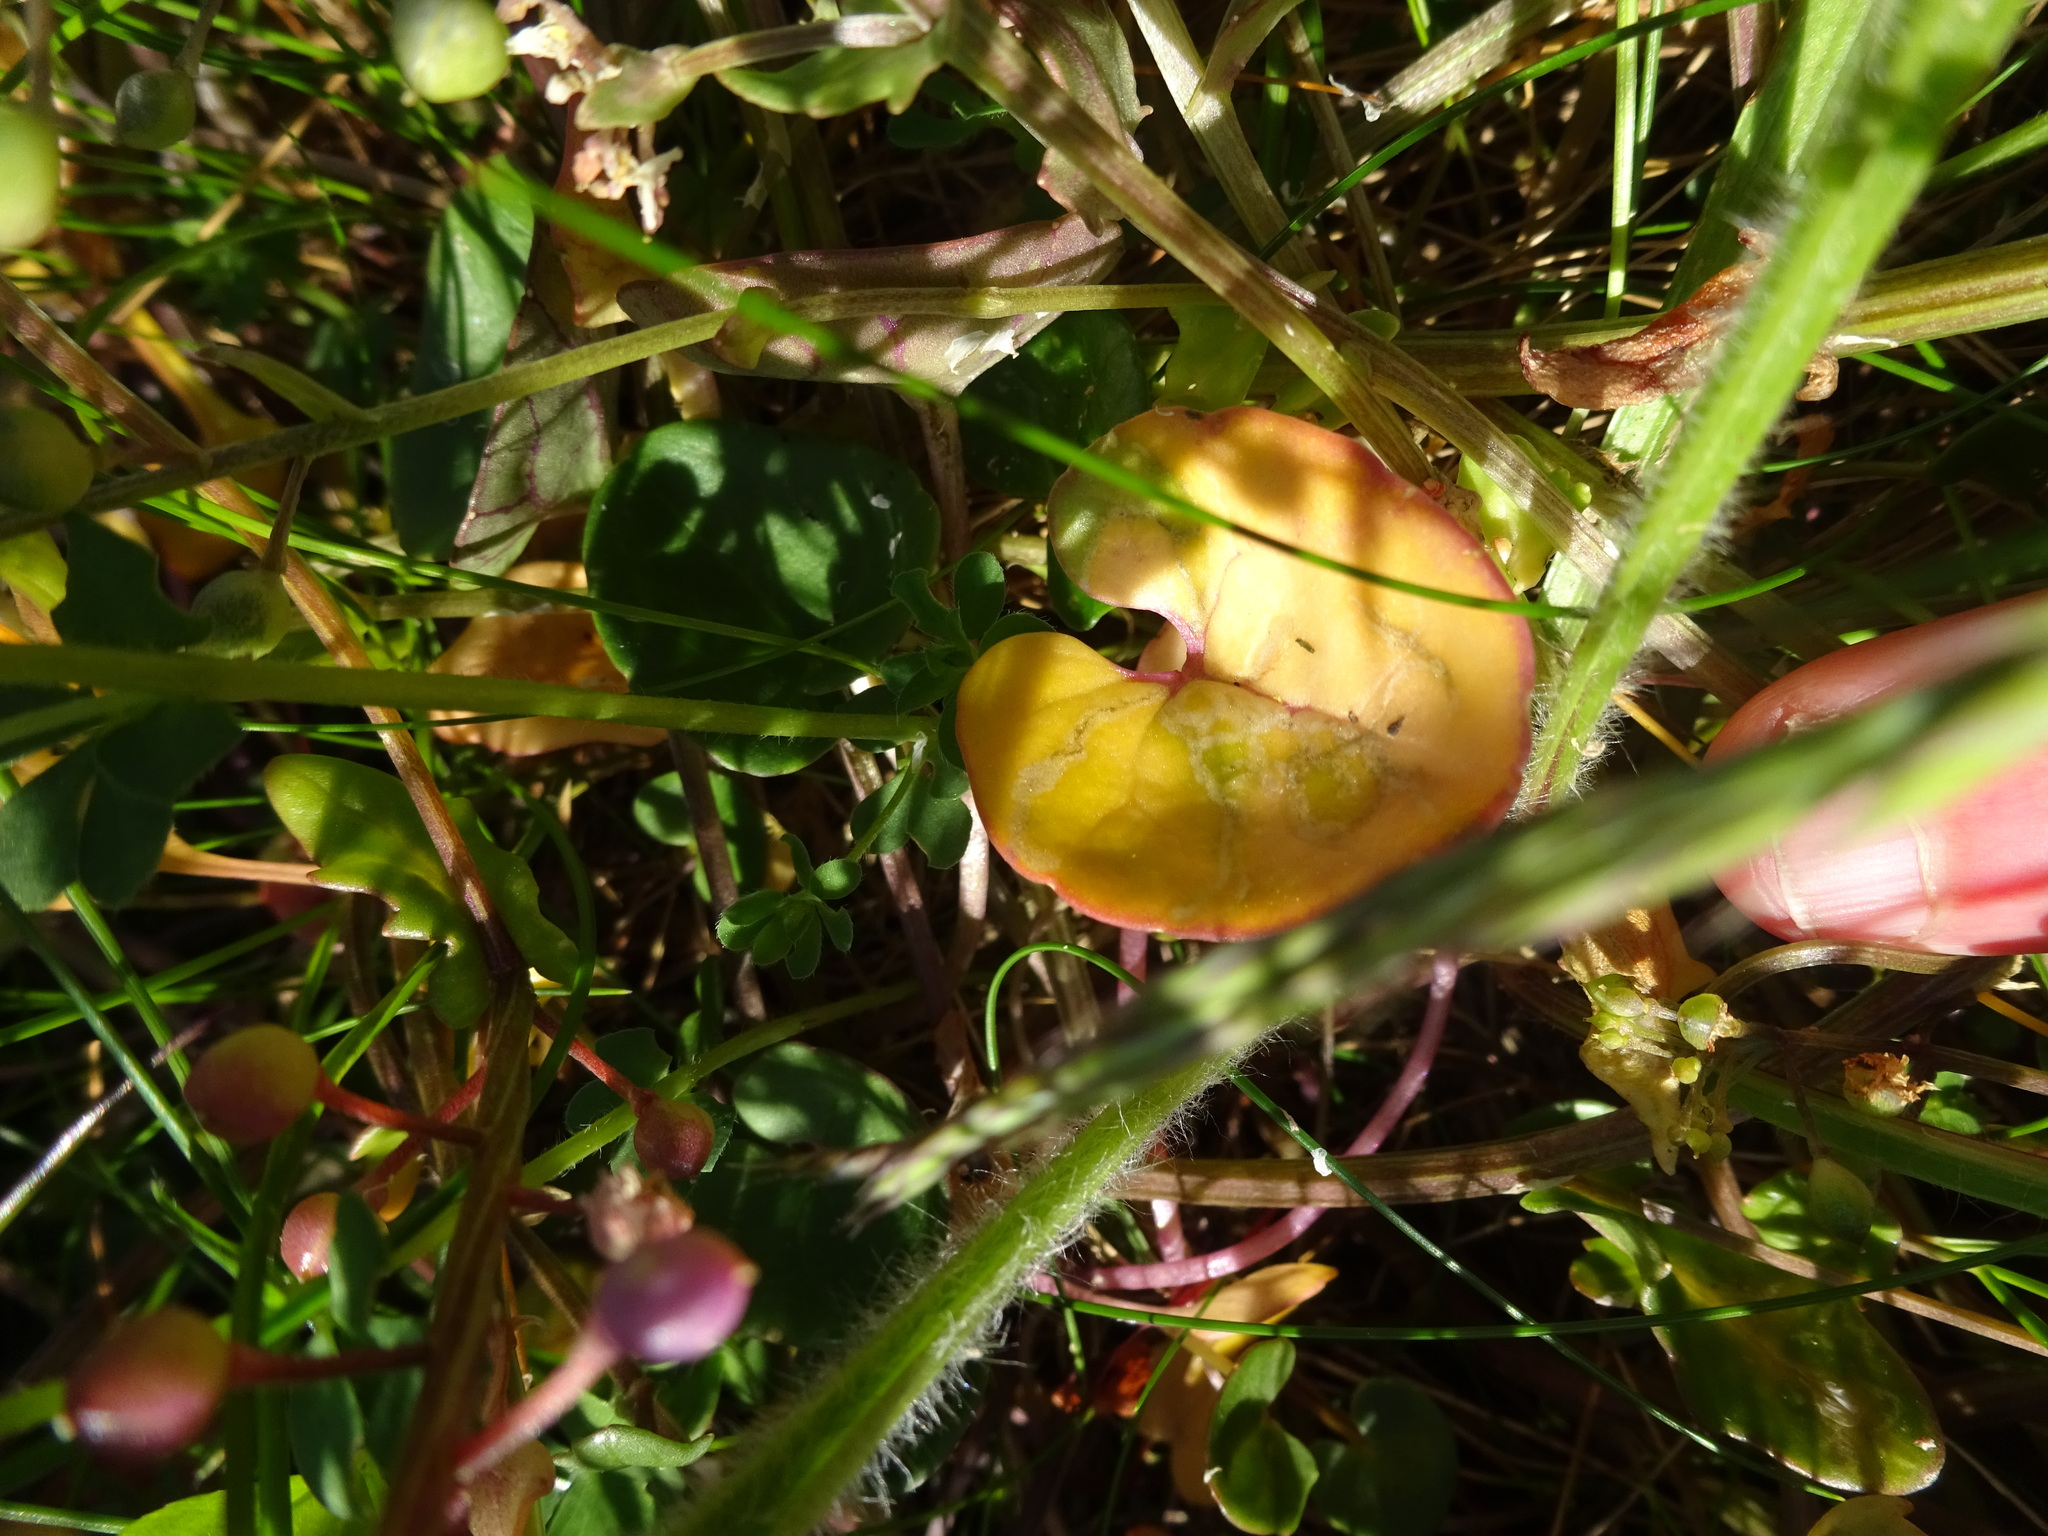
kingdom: Plantae
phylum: Tracheophyta
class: Magnoliopsida
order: Brassicales
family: Brassicaceae
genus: Cochlearia
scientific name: Cochlearia officinalis
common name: Scurvy-grass
